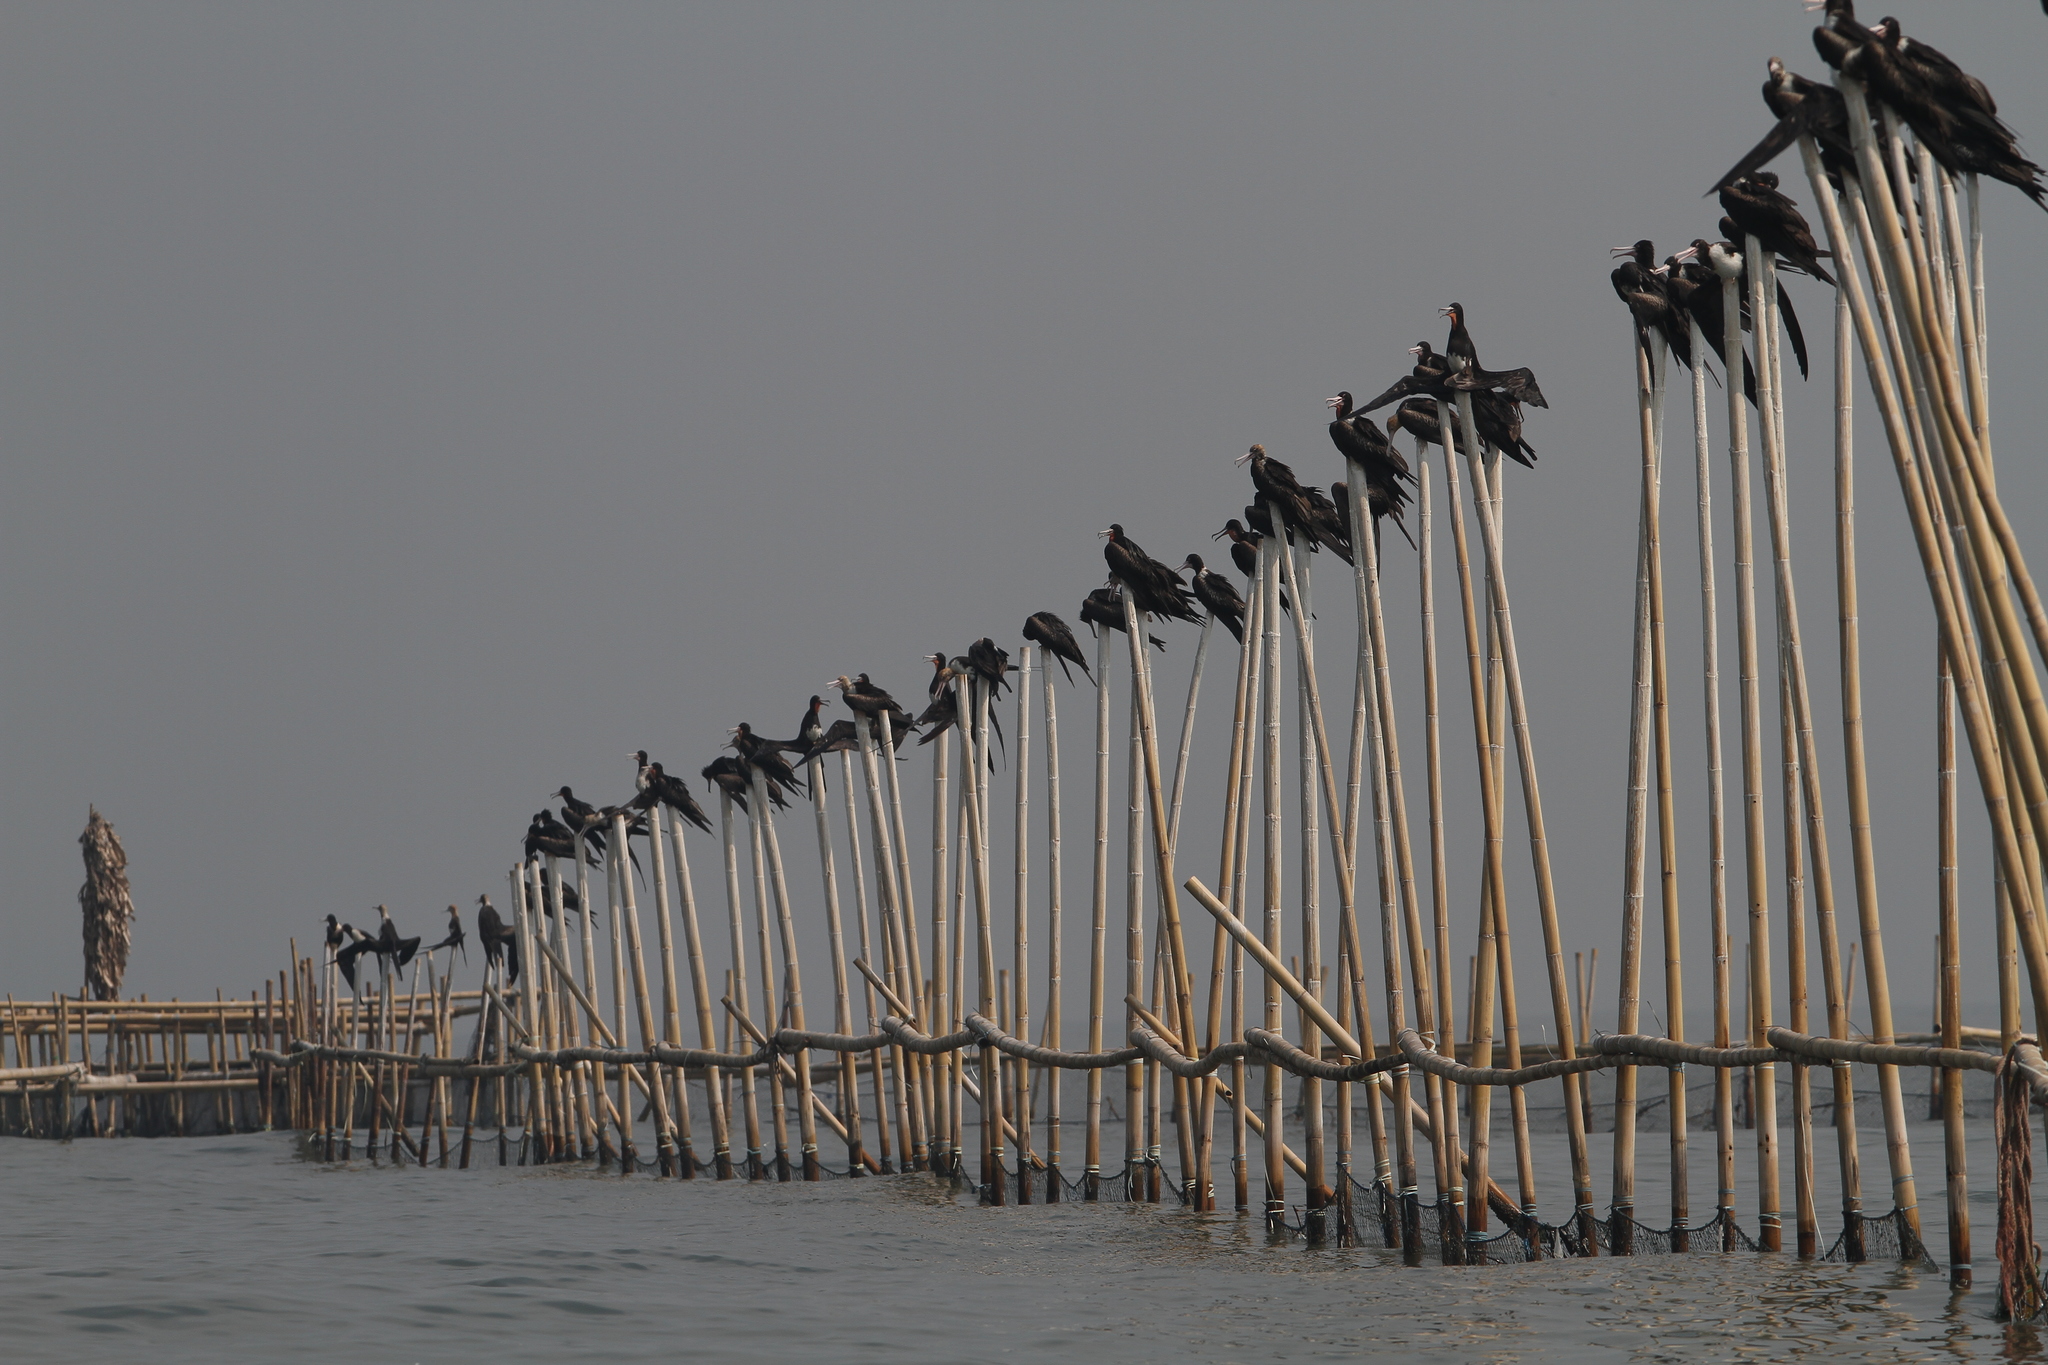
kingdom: Animalia
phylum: Chordata
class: Aves
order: Suliformes
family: Fregatidae
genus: Fregata
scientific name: Fregata andrewsi
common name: Christmas frigatebird
